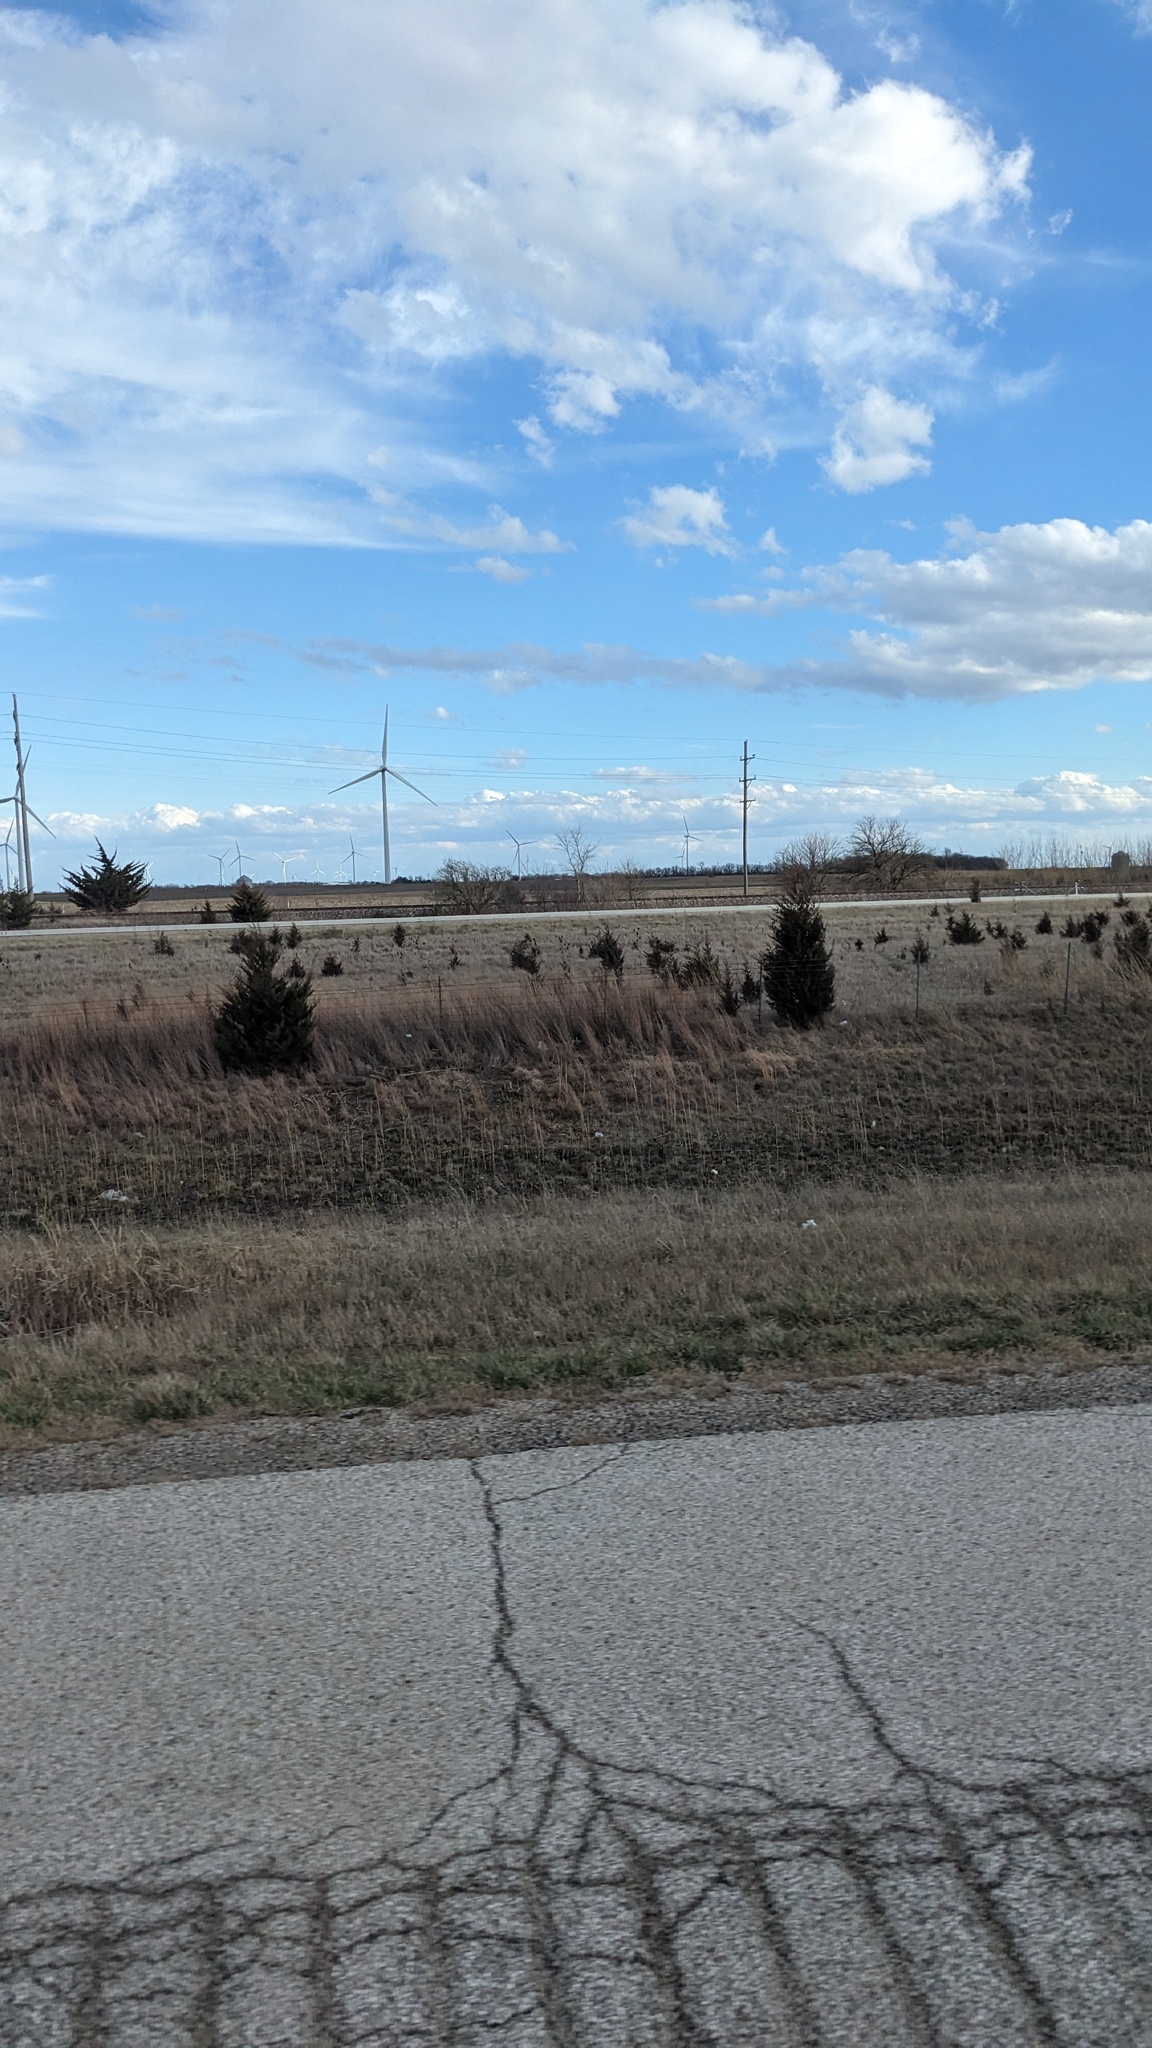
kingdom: Plantae
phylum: Tracheophyta
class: Pinopsida
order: Pinales
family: Cupressaceae
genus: Juniperus
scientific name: Juniperus virginiana
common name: Red juniper
